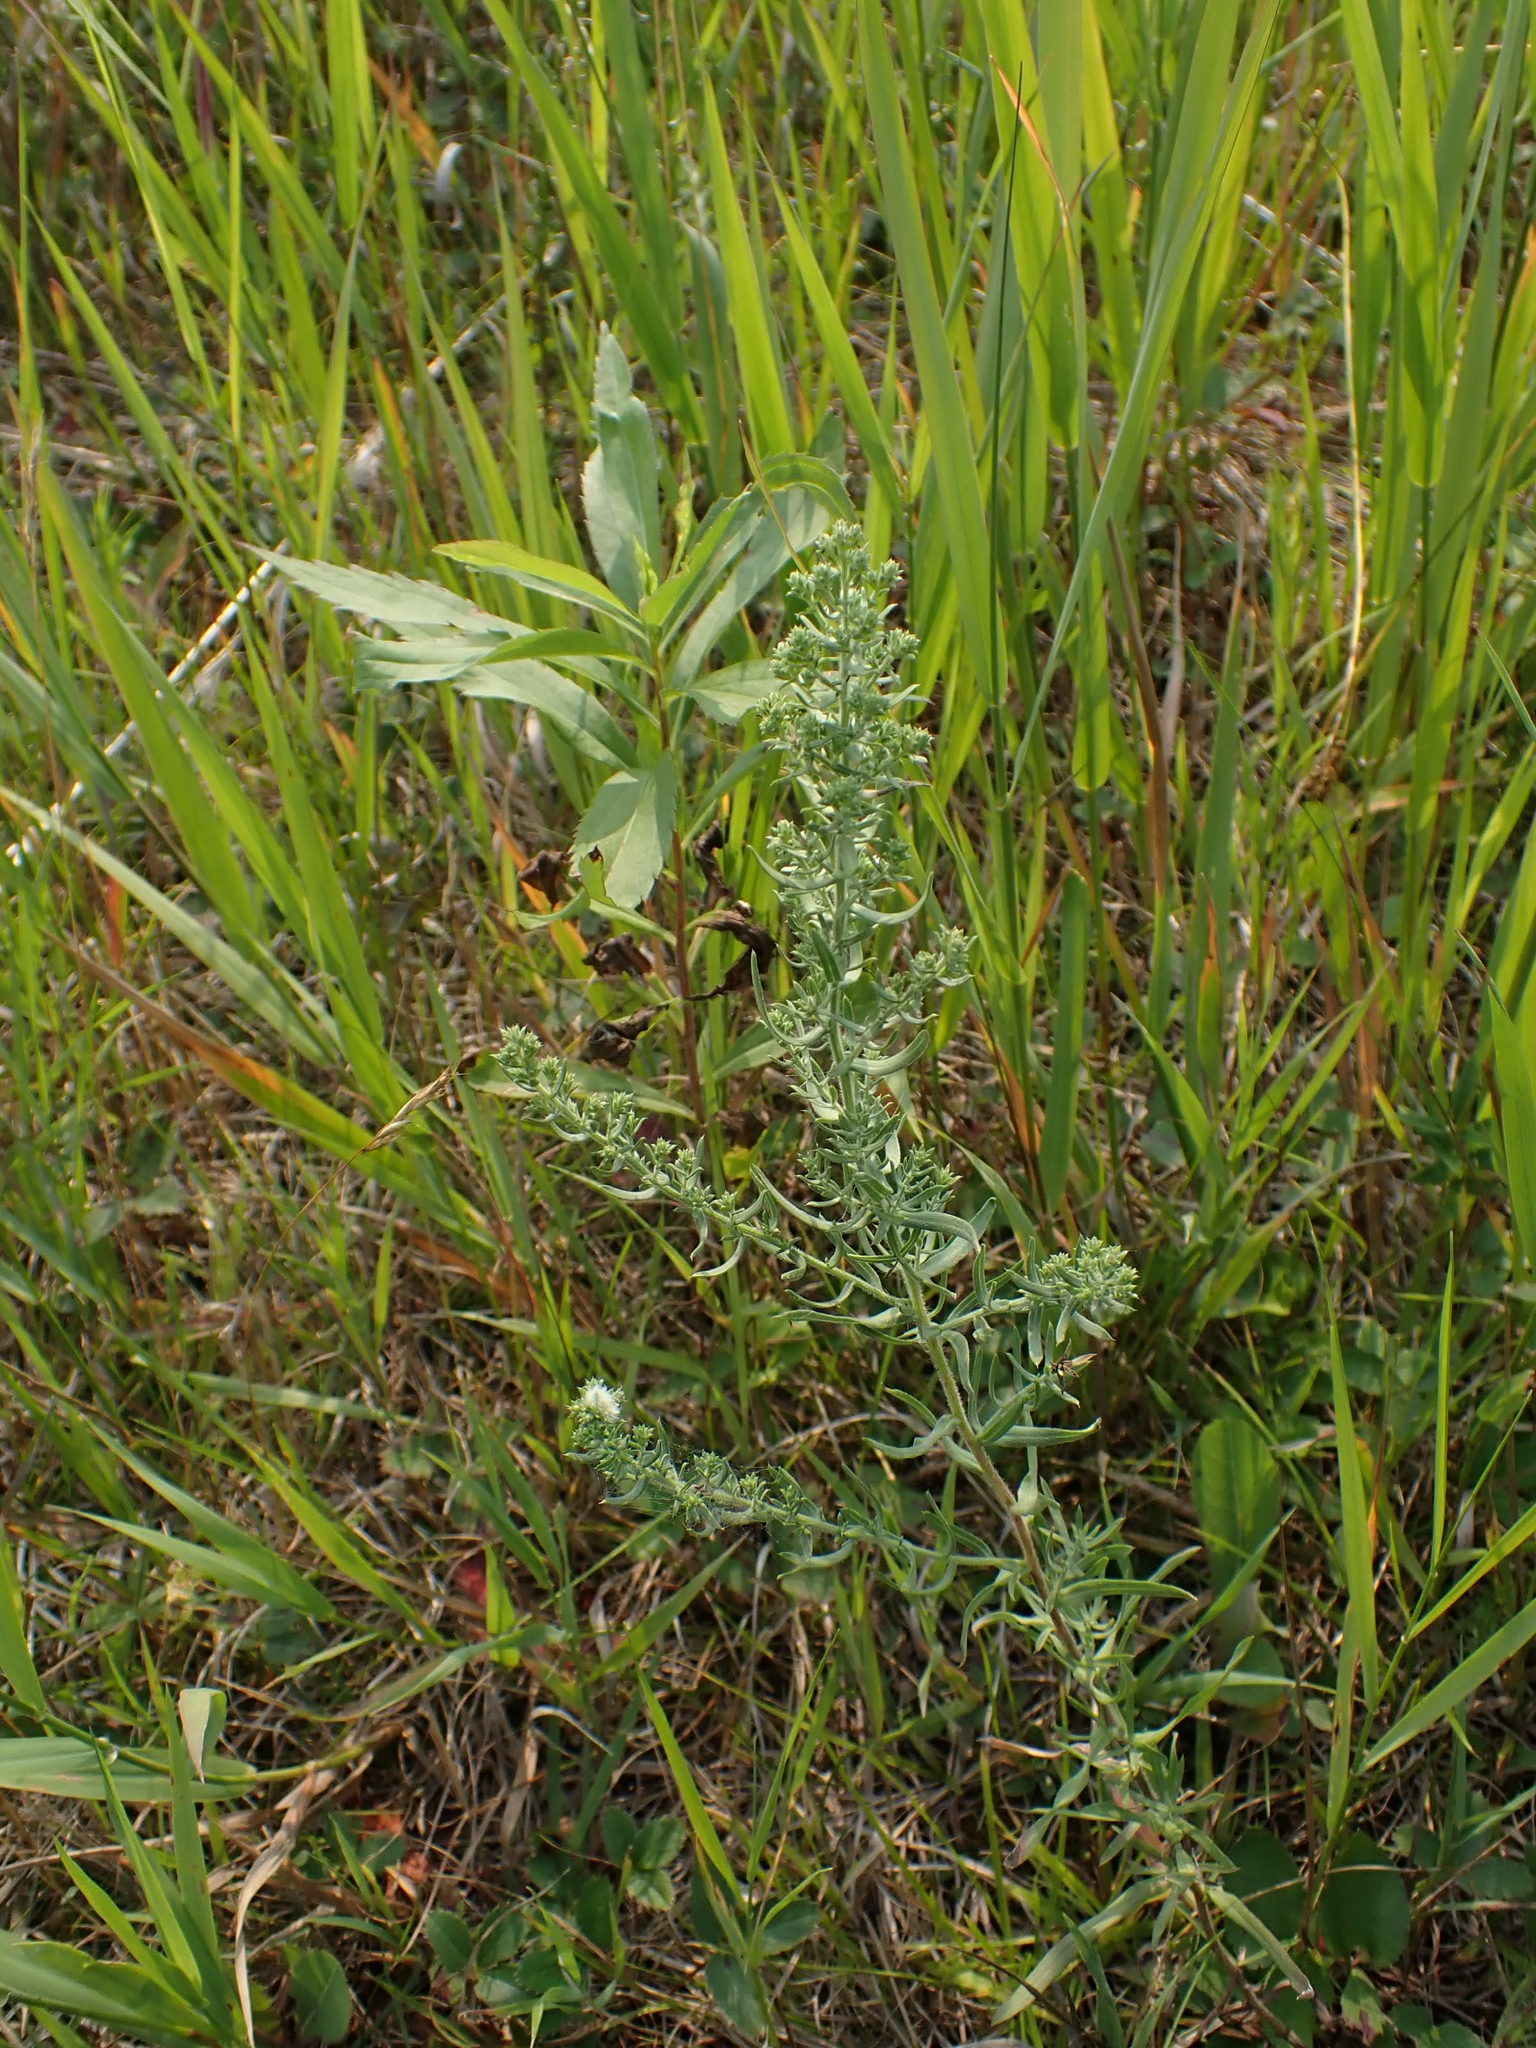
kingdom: Plantae
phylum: Tracheophyta
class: Magnoliopsida
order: Asterales
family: Asteraceae
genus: Symphyotrichum
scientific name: Symphyotrichum ericoides
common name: Heath aster
